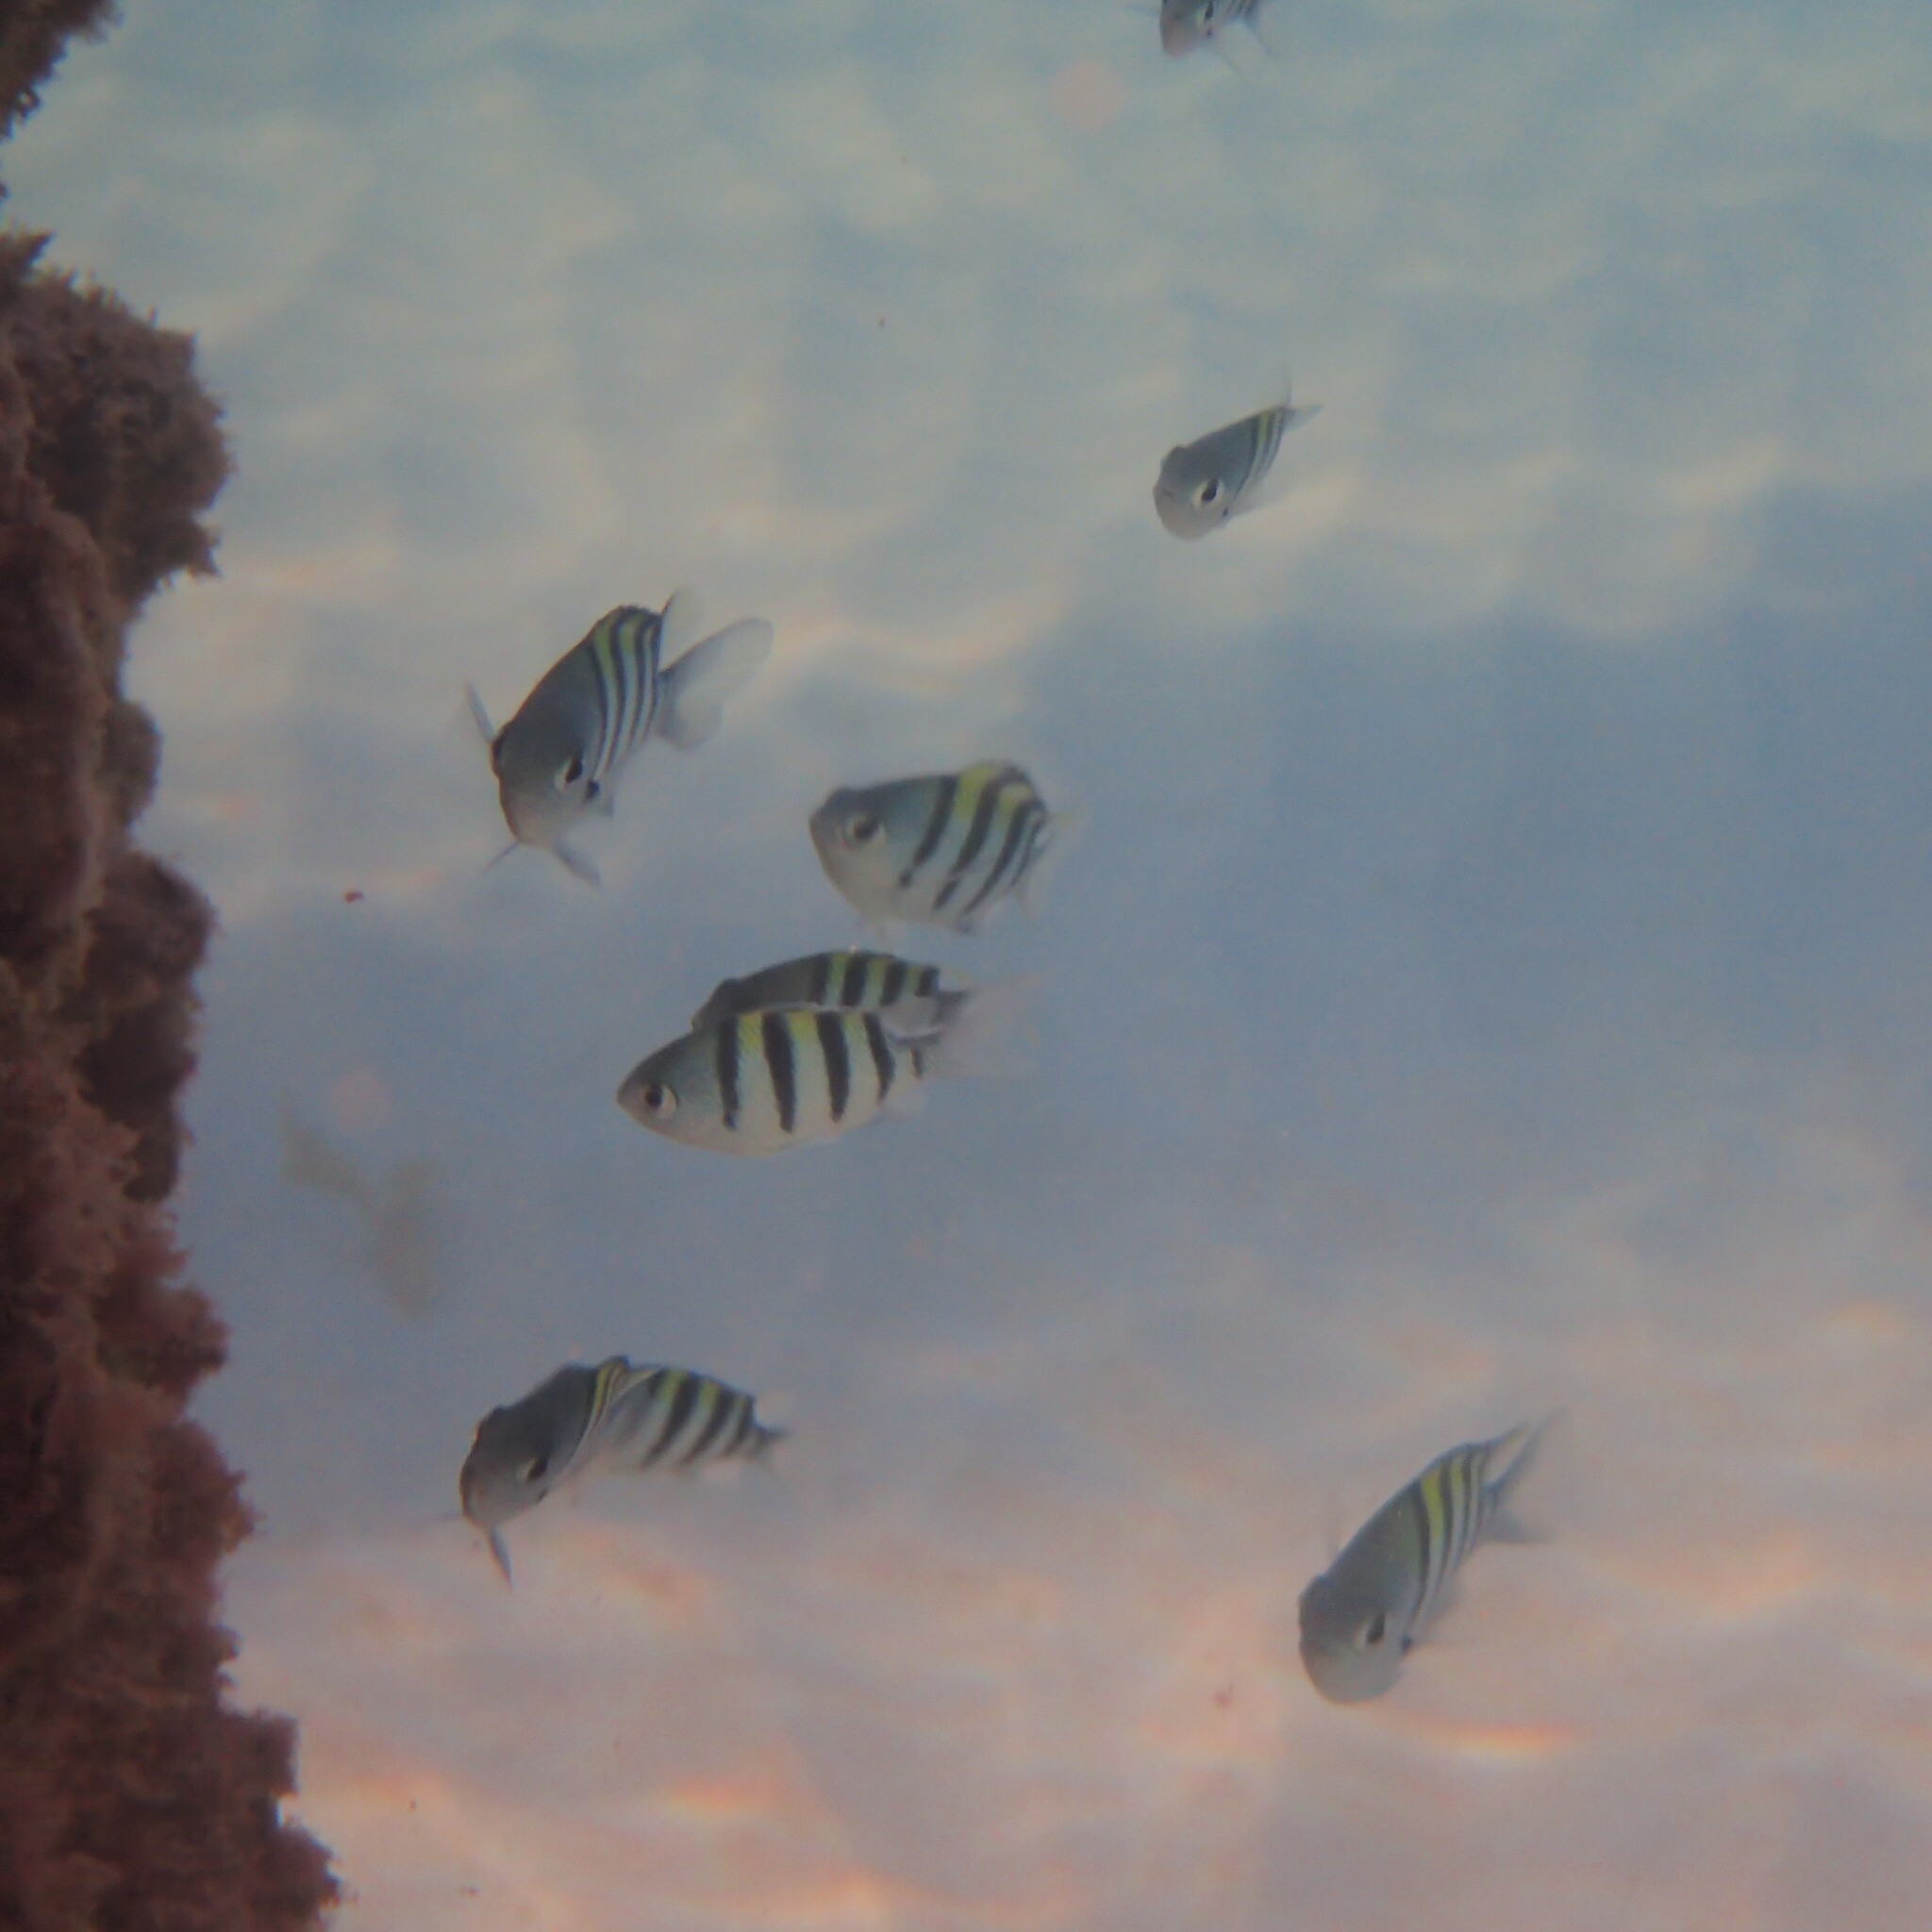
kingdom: Animalia
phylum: Chordata
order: Perciformes
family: Pomacentridae
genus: Abudefduf
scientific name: Abudefduf vaigiensis
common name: Indo-pacific sergeant
